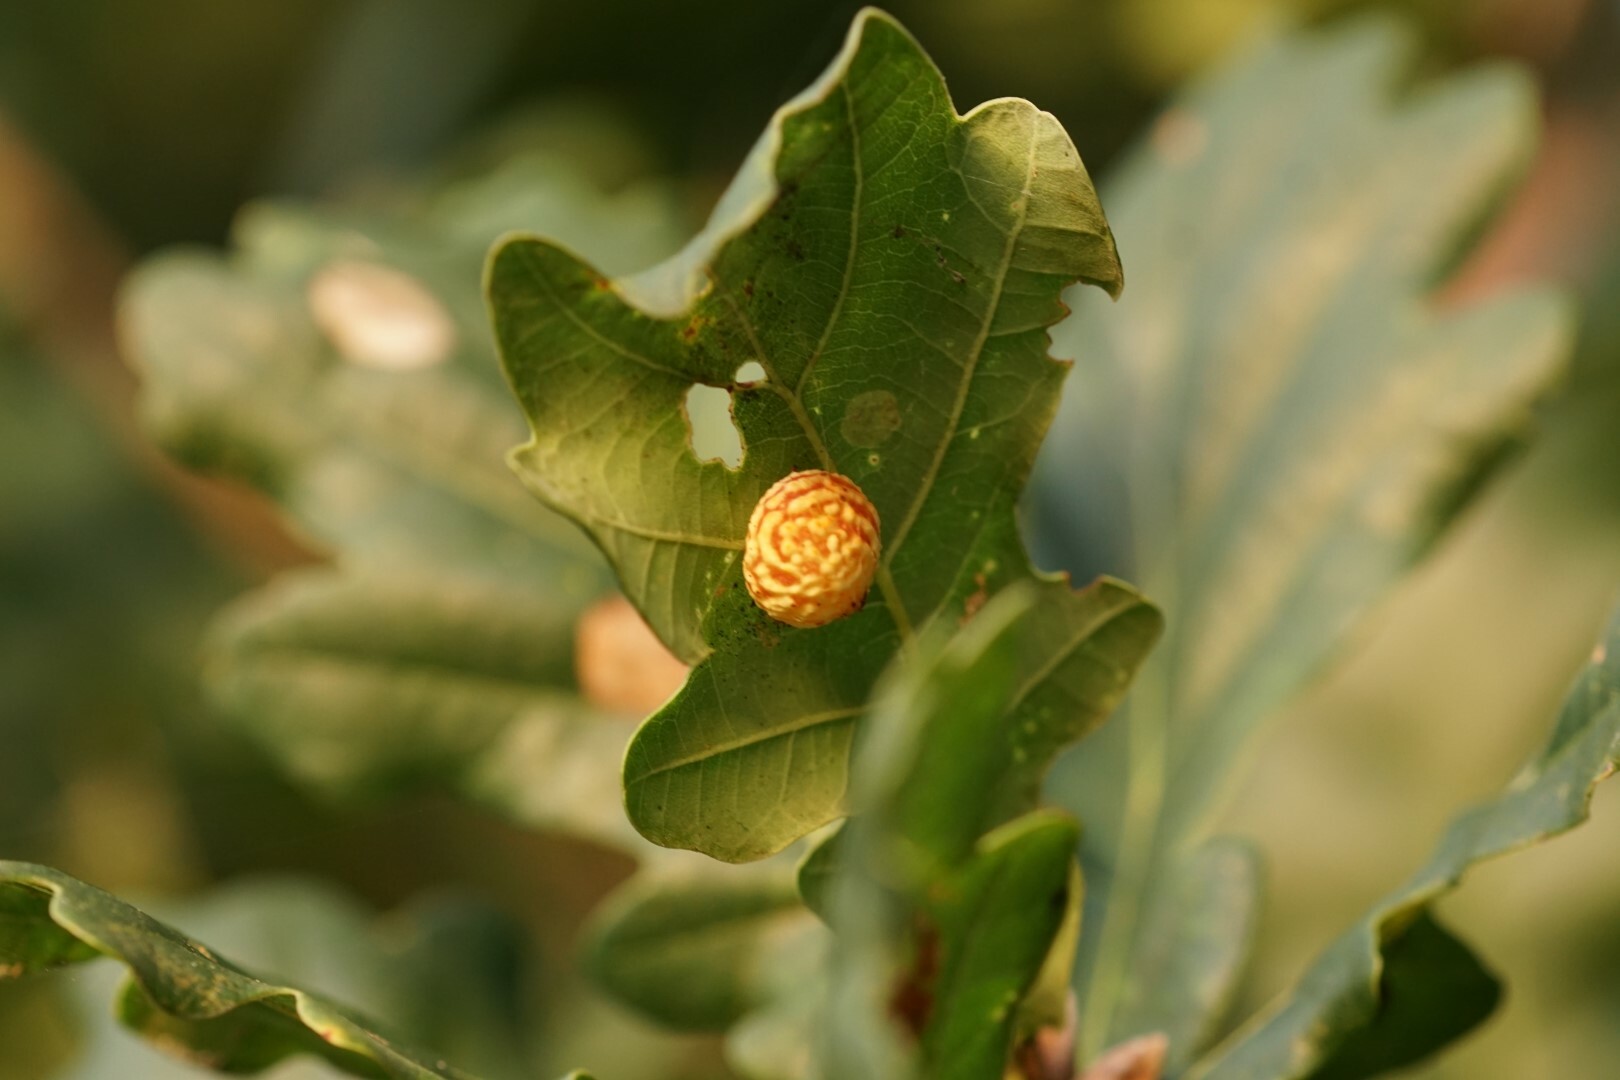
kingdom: Animalia
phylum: Arthropoda
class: Insecta
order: Hymenoptera
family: Cynipidae
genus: Cynips
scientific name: Cynips longiventris
